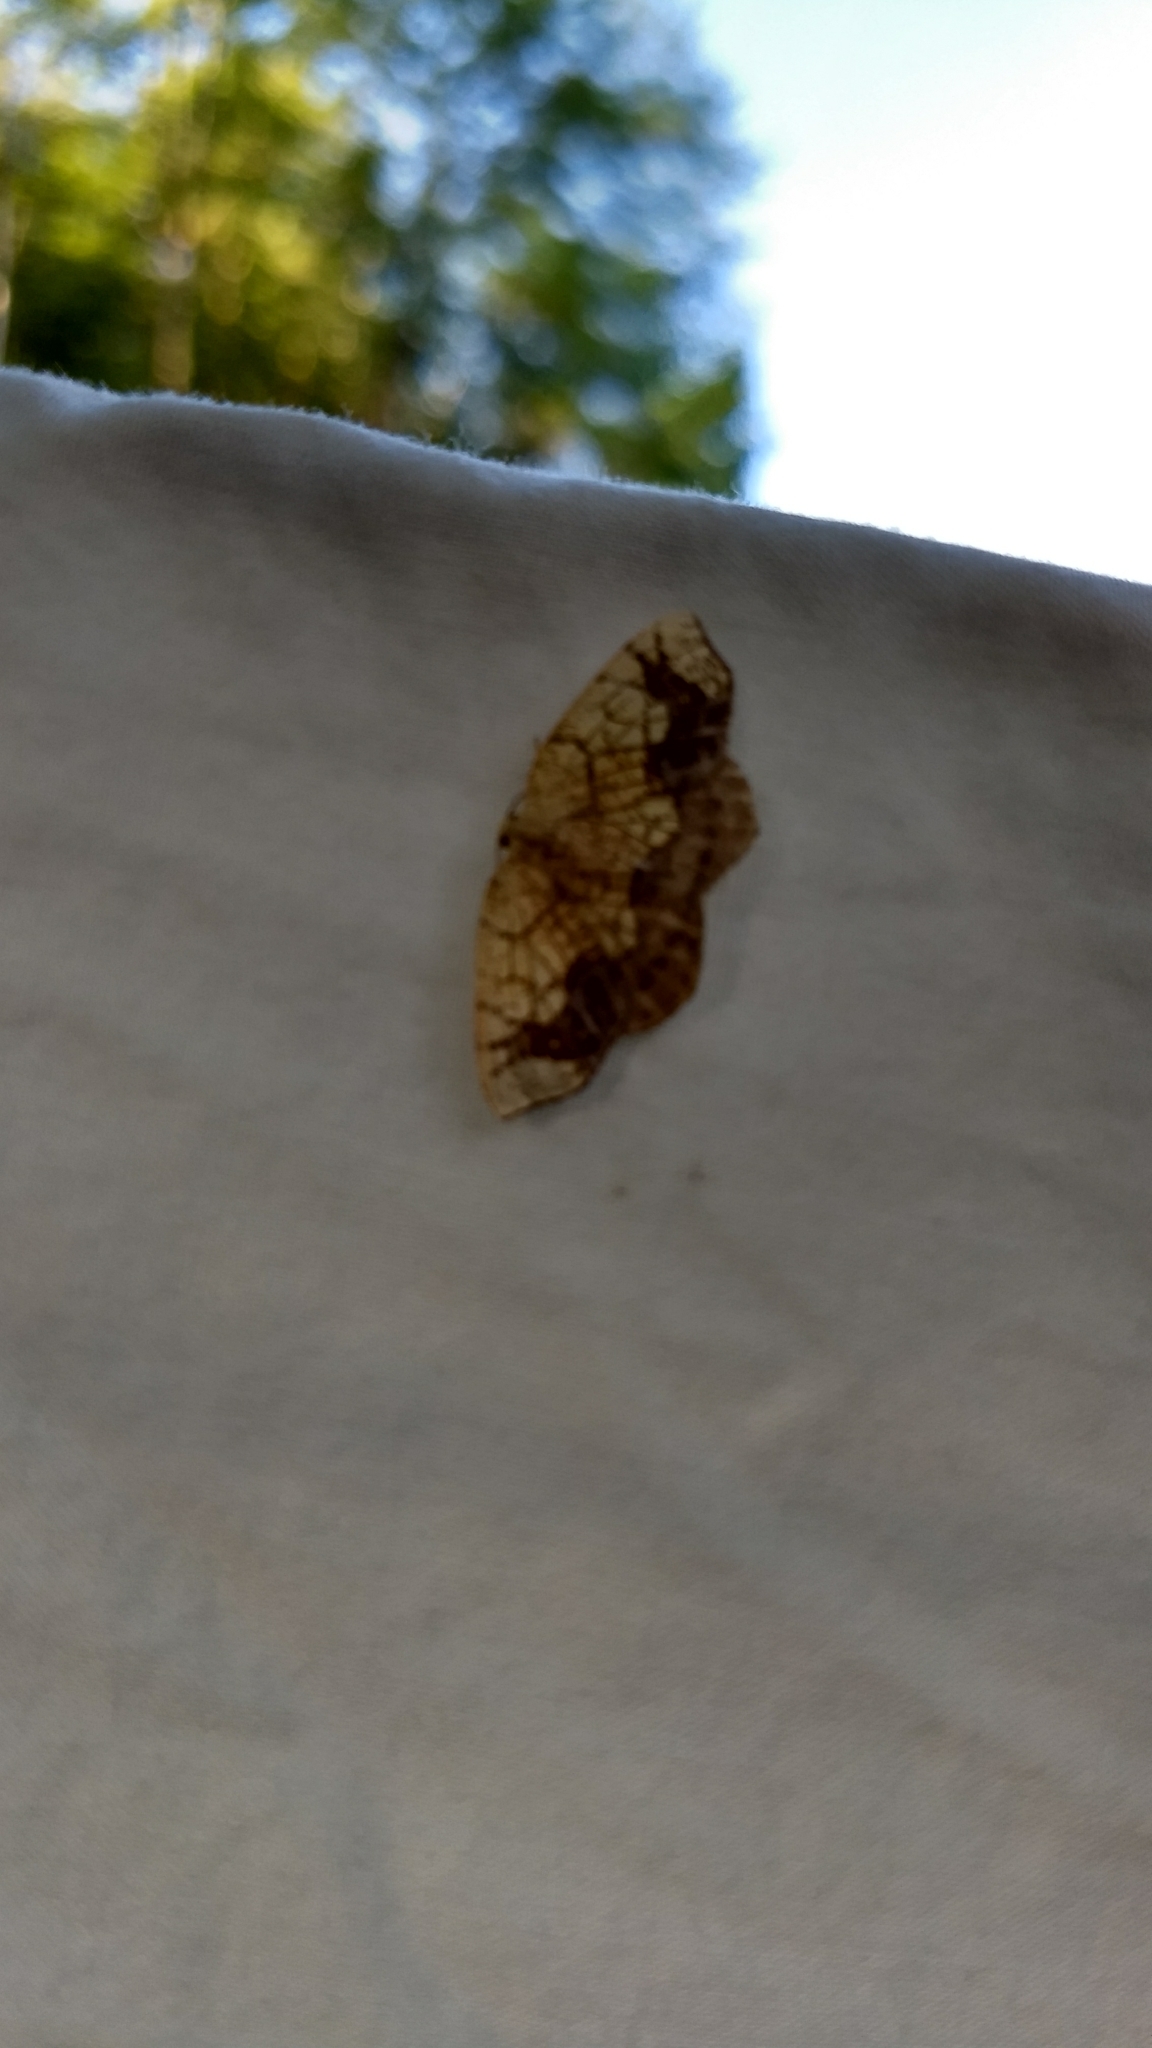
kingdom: Animalia
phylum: Arthropoda
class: Insecta
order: Lepidoptera
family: Geometridae
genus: Nematocampa
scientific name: Nematocampa resistaria
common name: Horned spanworm moth
